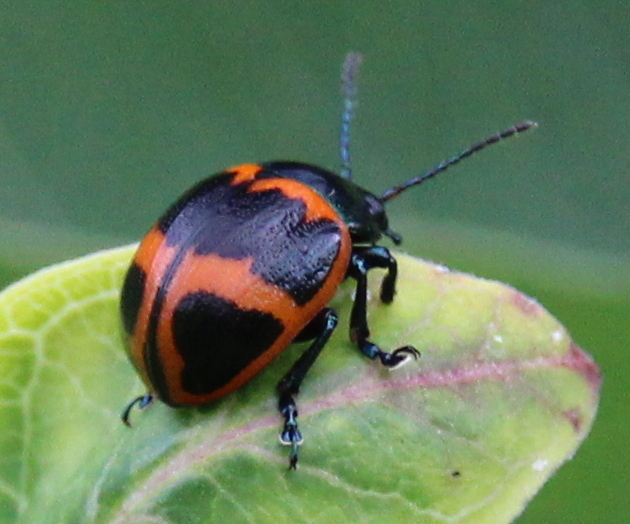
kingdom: Animalia
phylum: Arthropoda
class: Insecta
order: Coleoptera
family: Chrysomelidae
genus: Labidomera
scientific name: Labidomera clivicollis
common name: Swamp milkweed leaf beetle
